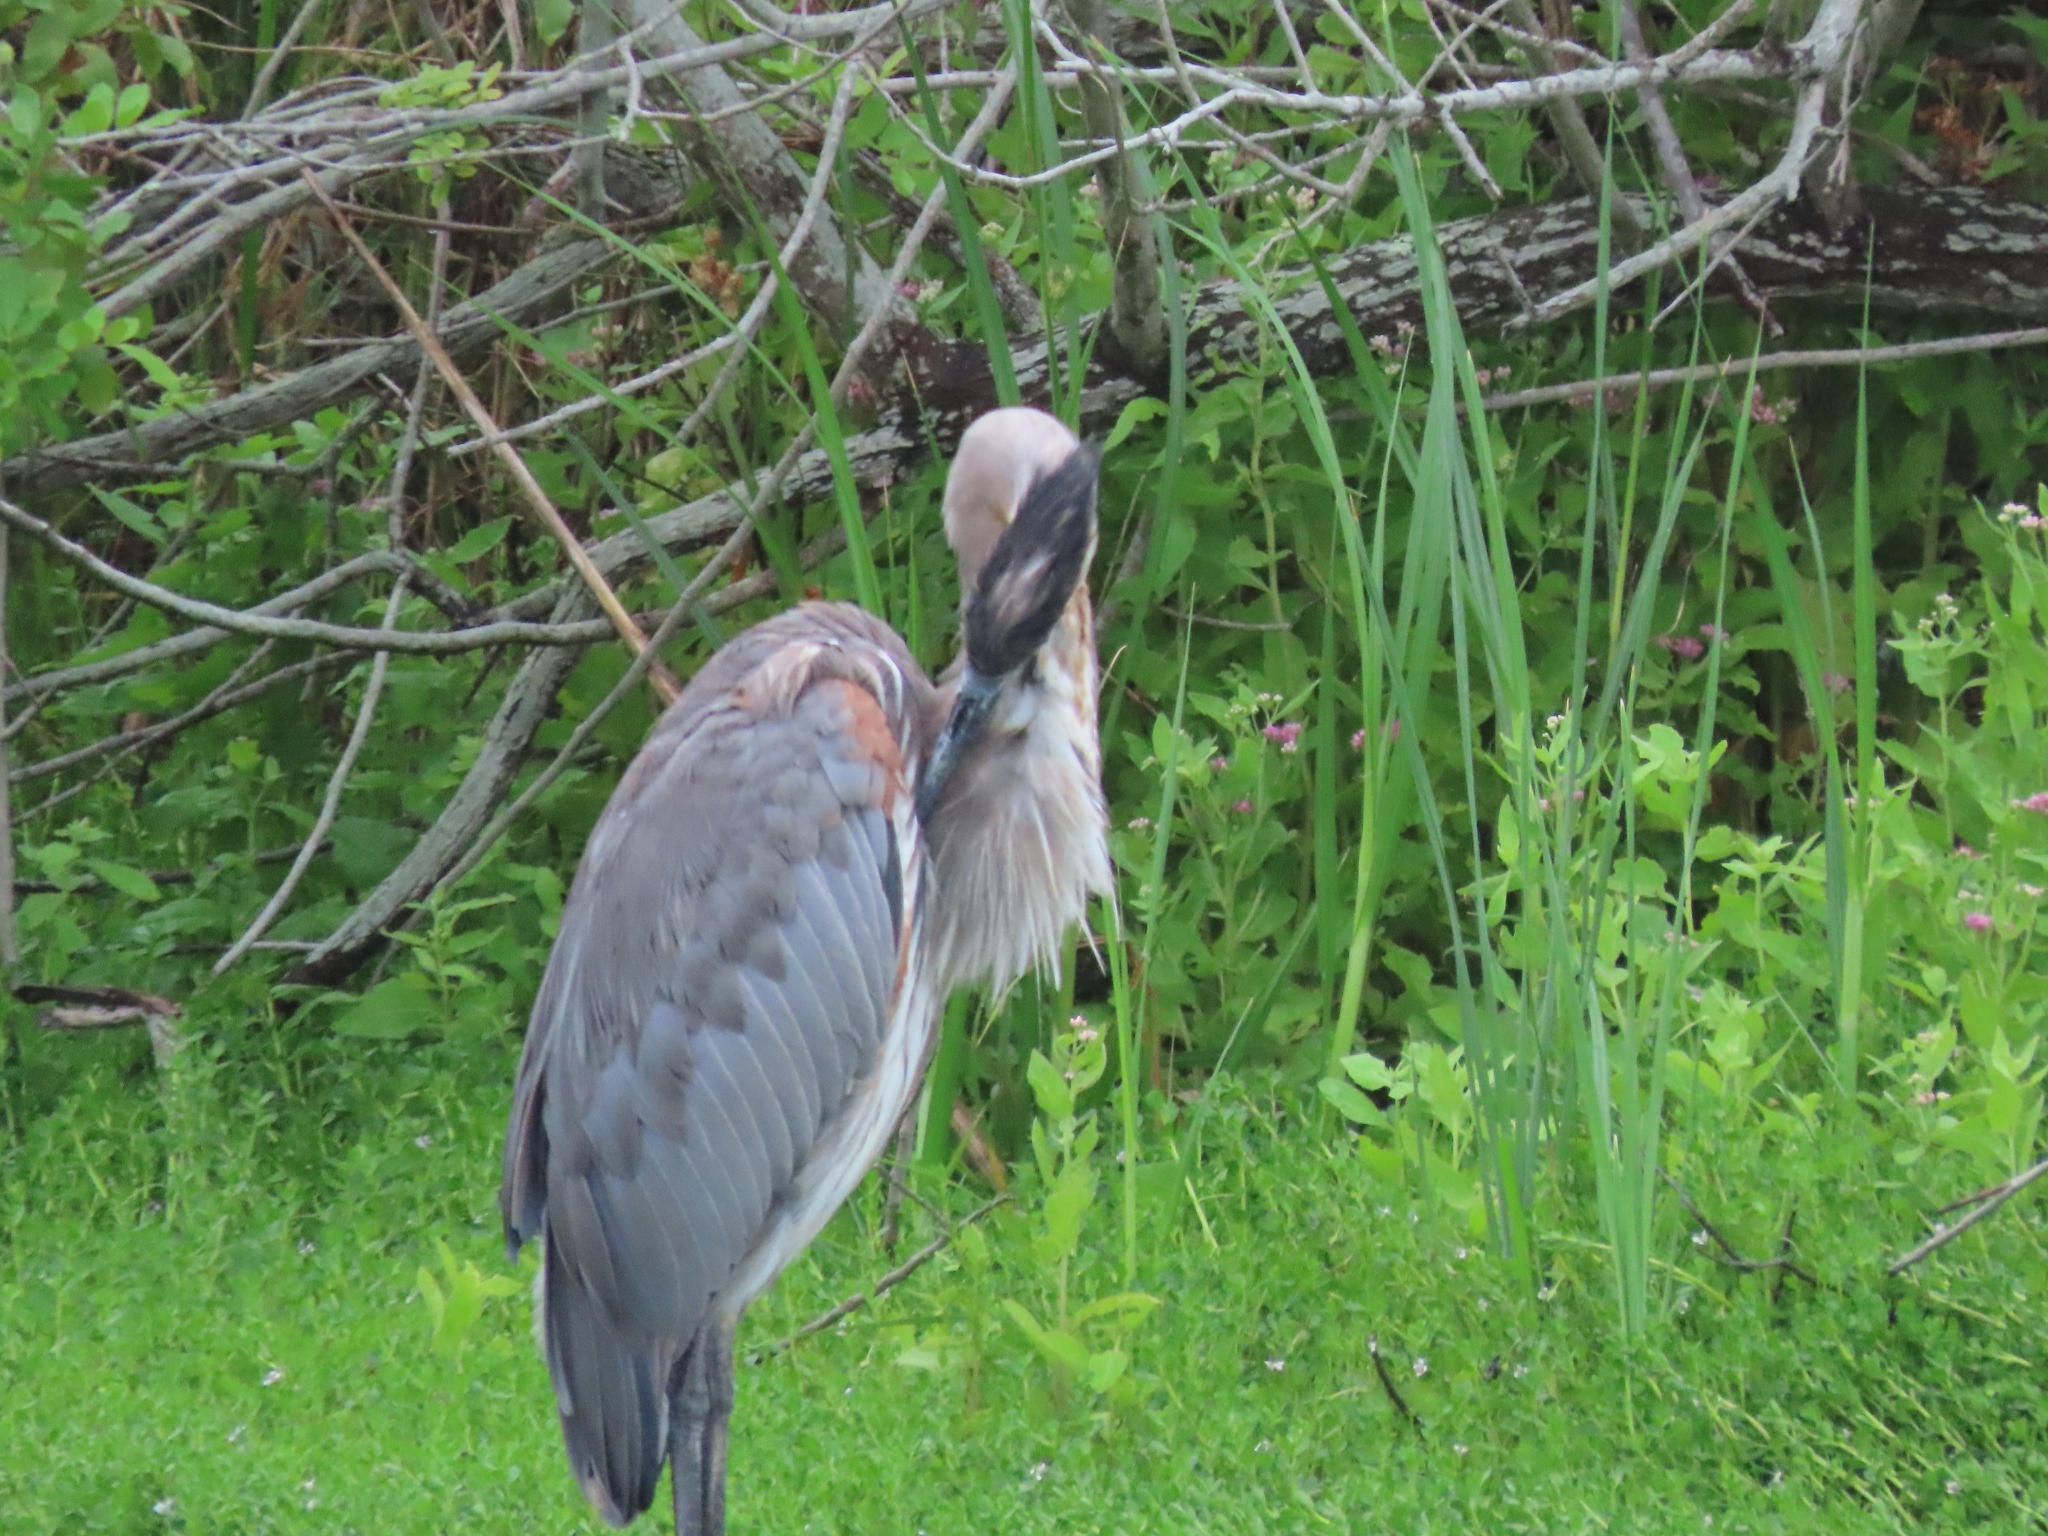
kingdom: Animalia
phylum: Chordata
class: Aves
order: Pelecaniformes
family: Ardeidae
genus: Ardea
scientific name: Ardea herodias
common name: Great blue heron
